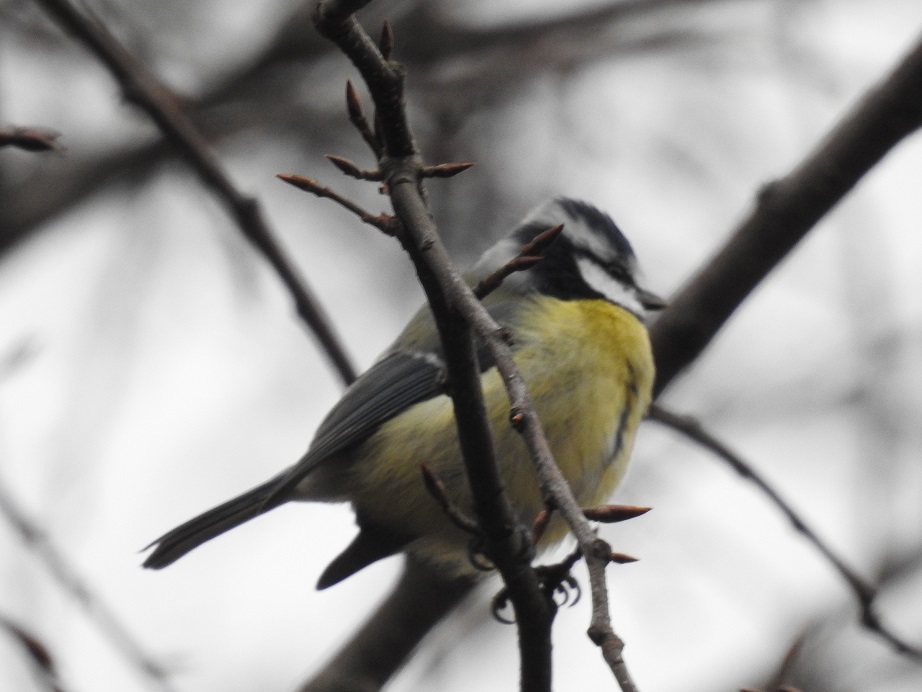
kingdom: Animalia
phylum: Chordata
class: Aves
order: Passeriformes
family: Paridae
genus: Cyanistes
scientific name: Cyanistes caeruleus
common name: Eurasian blue tit
